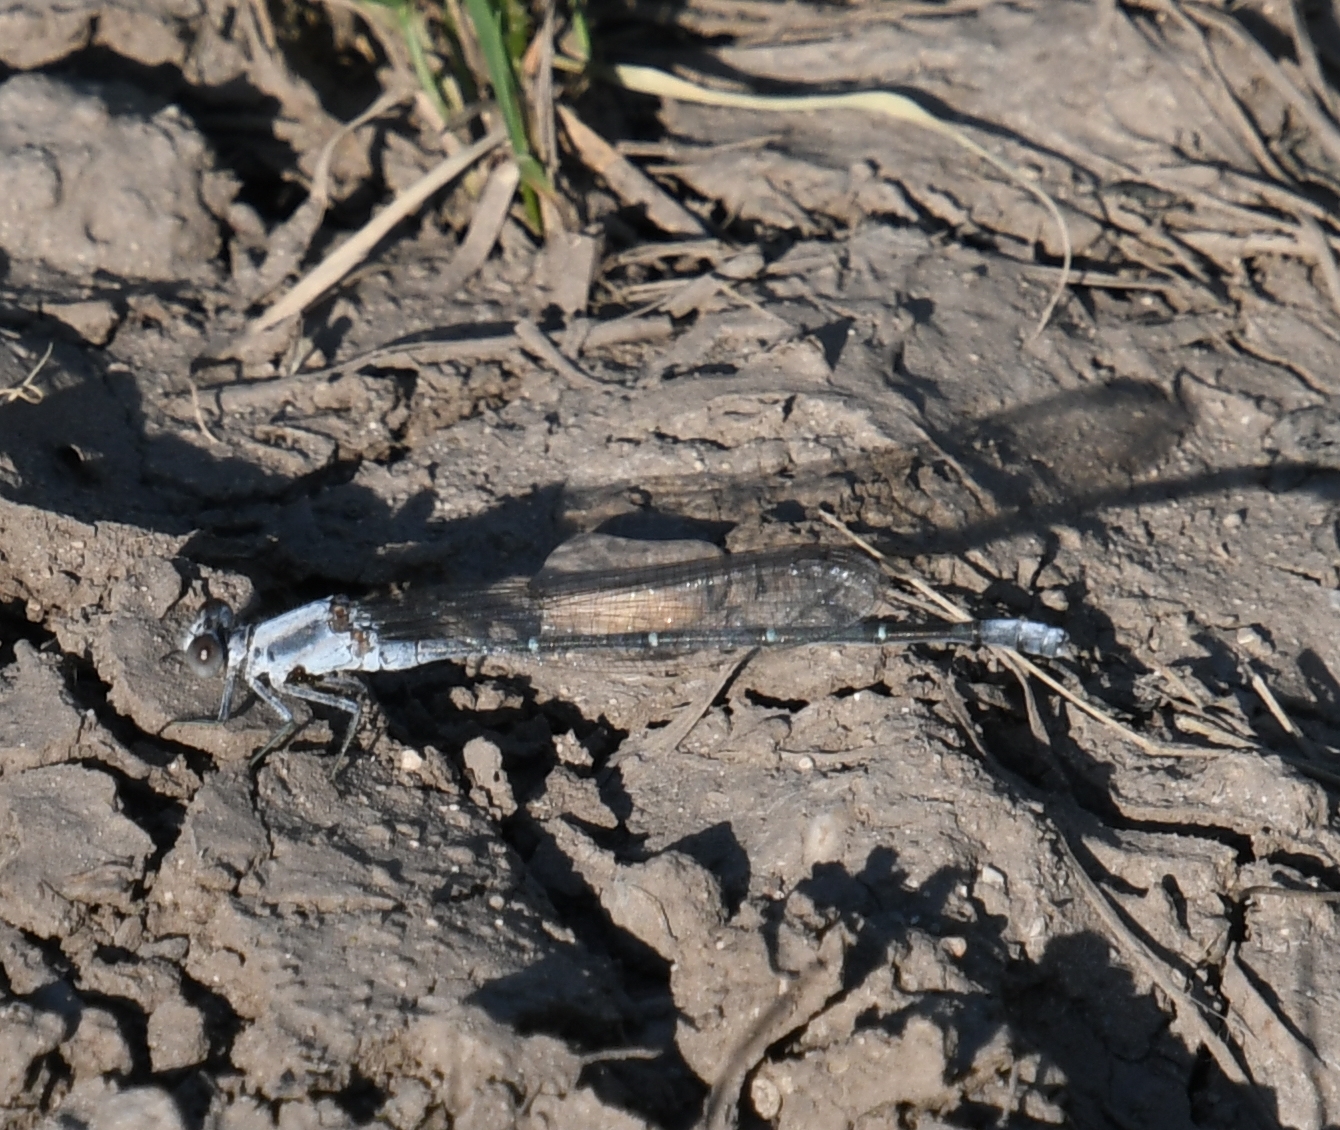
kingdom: Animalia
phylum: Arthropoda
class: Insecta
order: Odonata
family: Coenagrionidae
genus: Argia
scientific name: Argia moesta
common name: Powdered dancer
